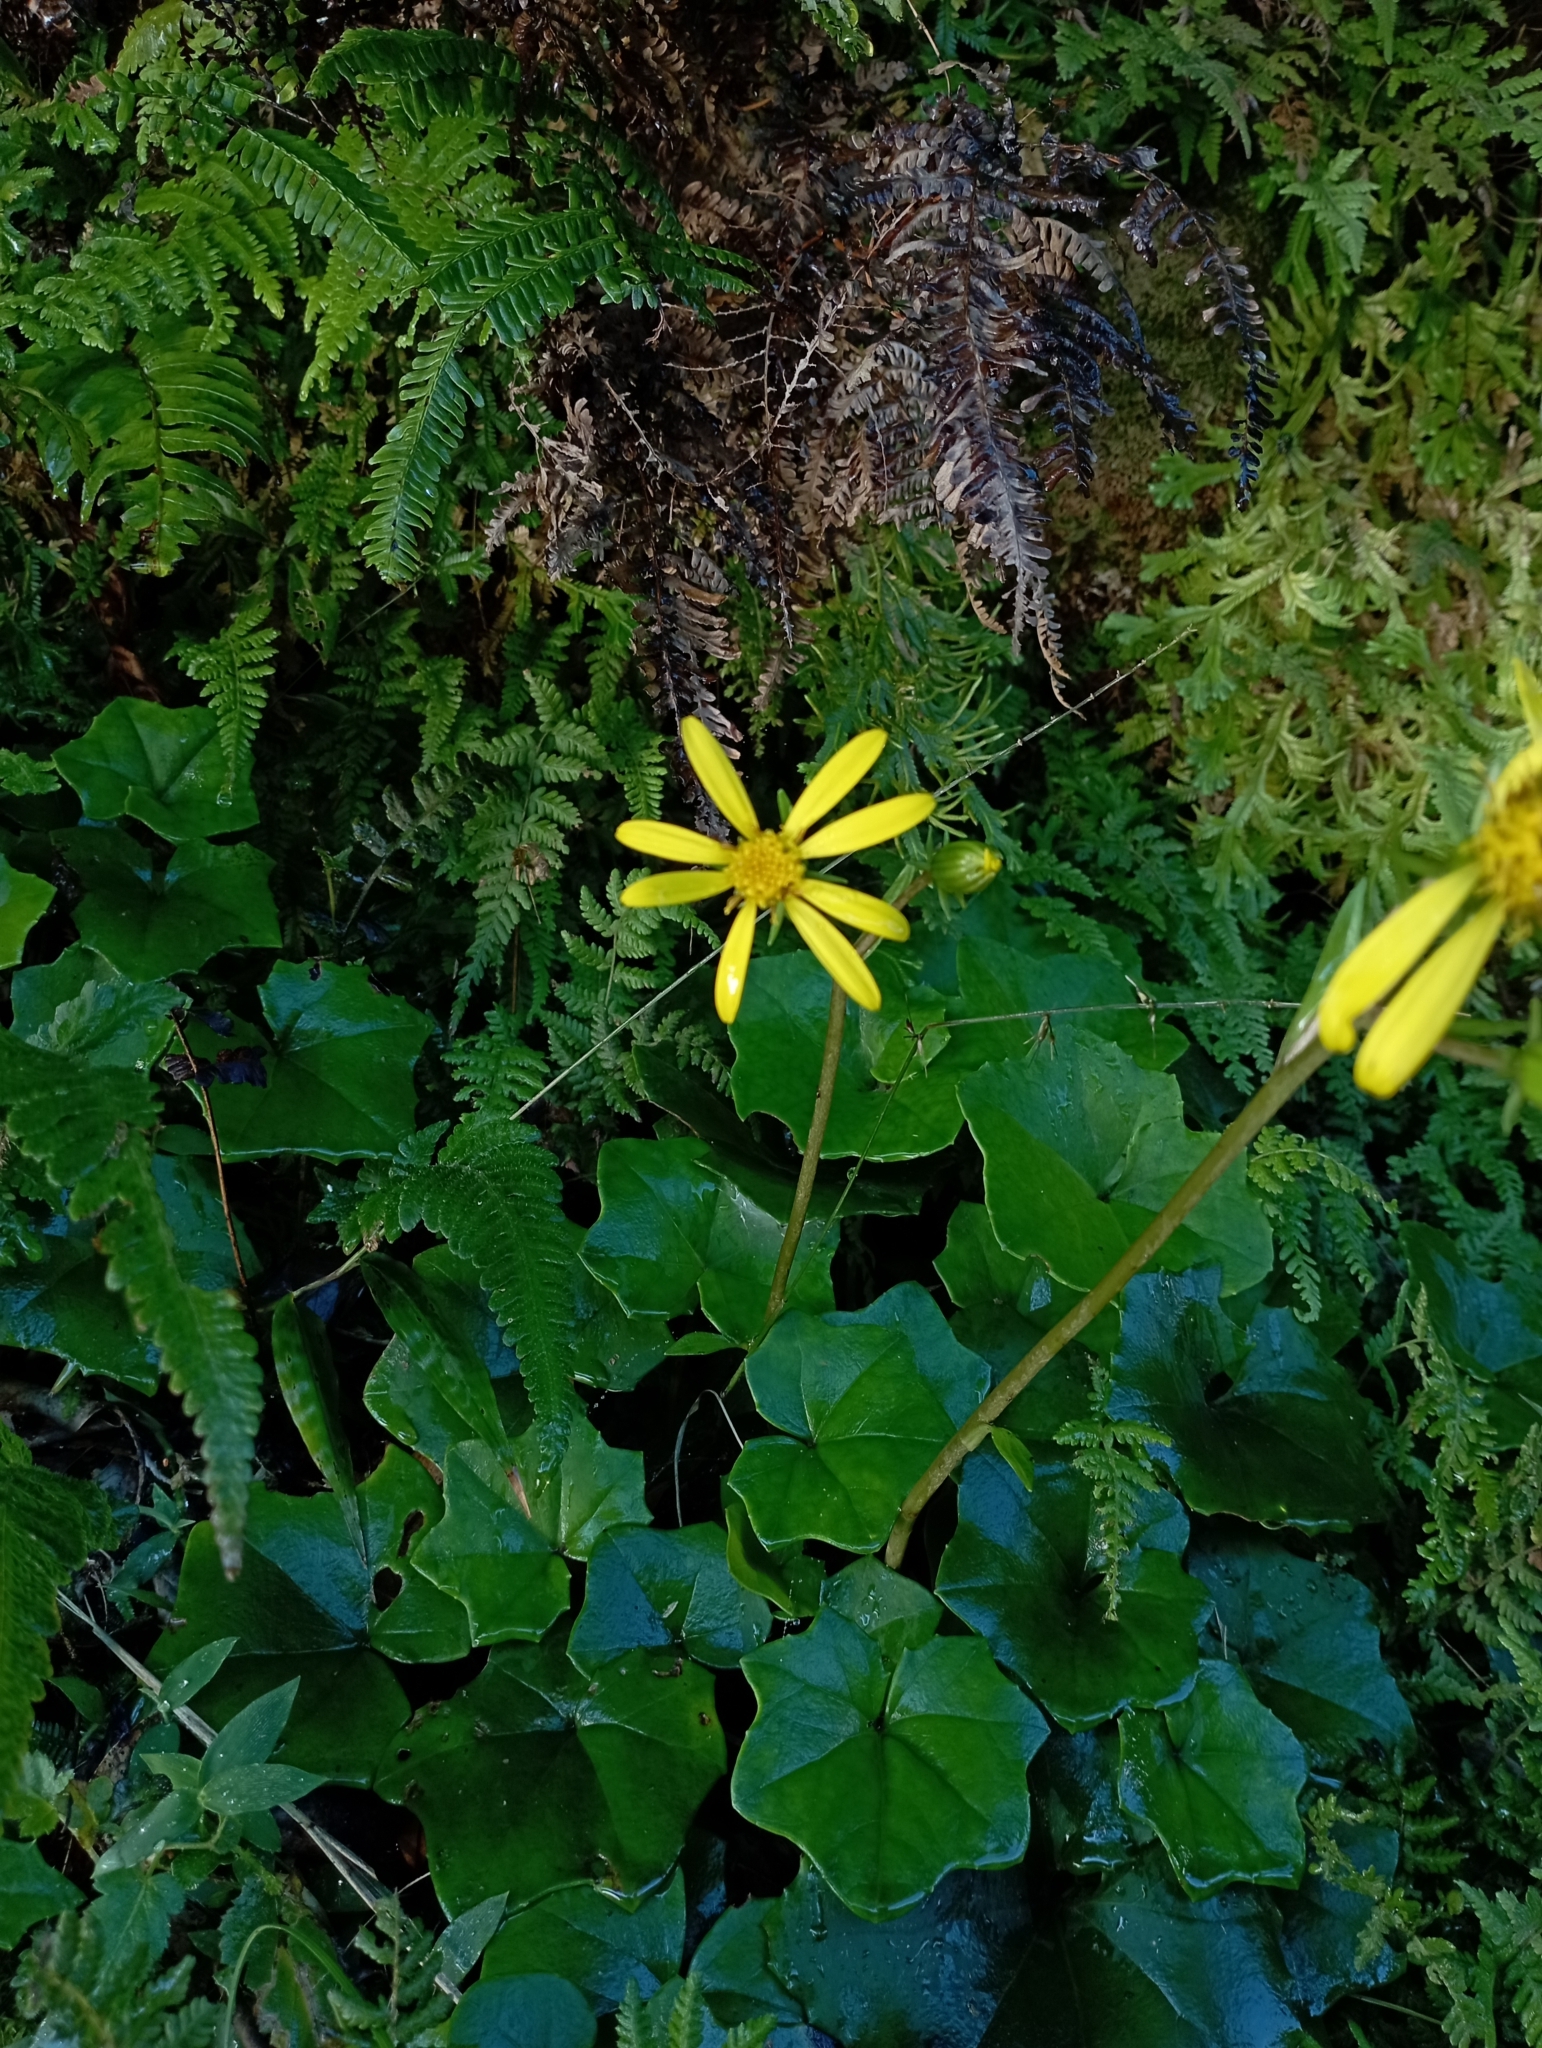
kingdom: Plantae
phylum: Tracheophyta
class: Magnoliopsida
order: Asterales
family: Asteraceae
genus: Farfugium
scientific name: Farfugium japonicum
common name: Leopardplant
